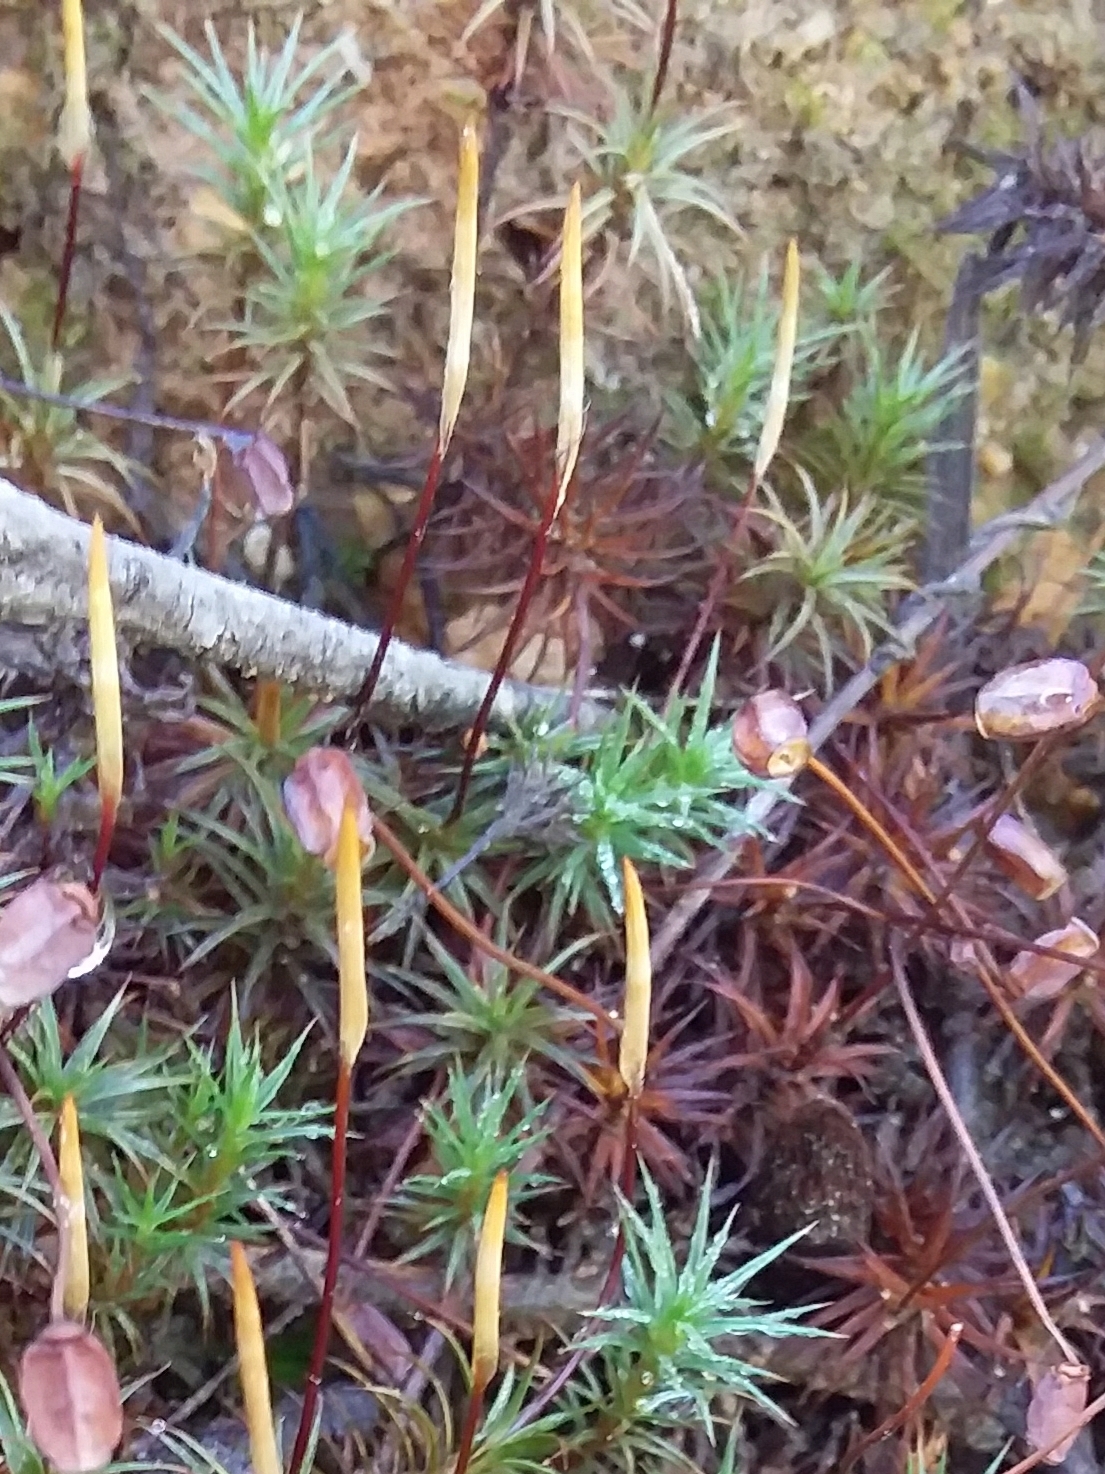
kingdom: Plantae
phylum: Bryophyta
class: Polytrichopsida
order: Polytrichales
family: Polytrichaceae
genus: Polytrichum
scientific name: Polytrichum juniperinum
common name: Juniper haircap moss
